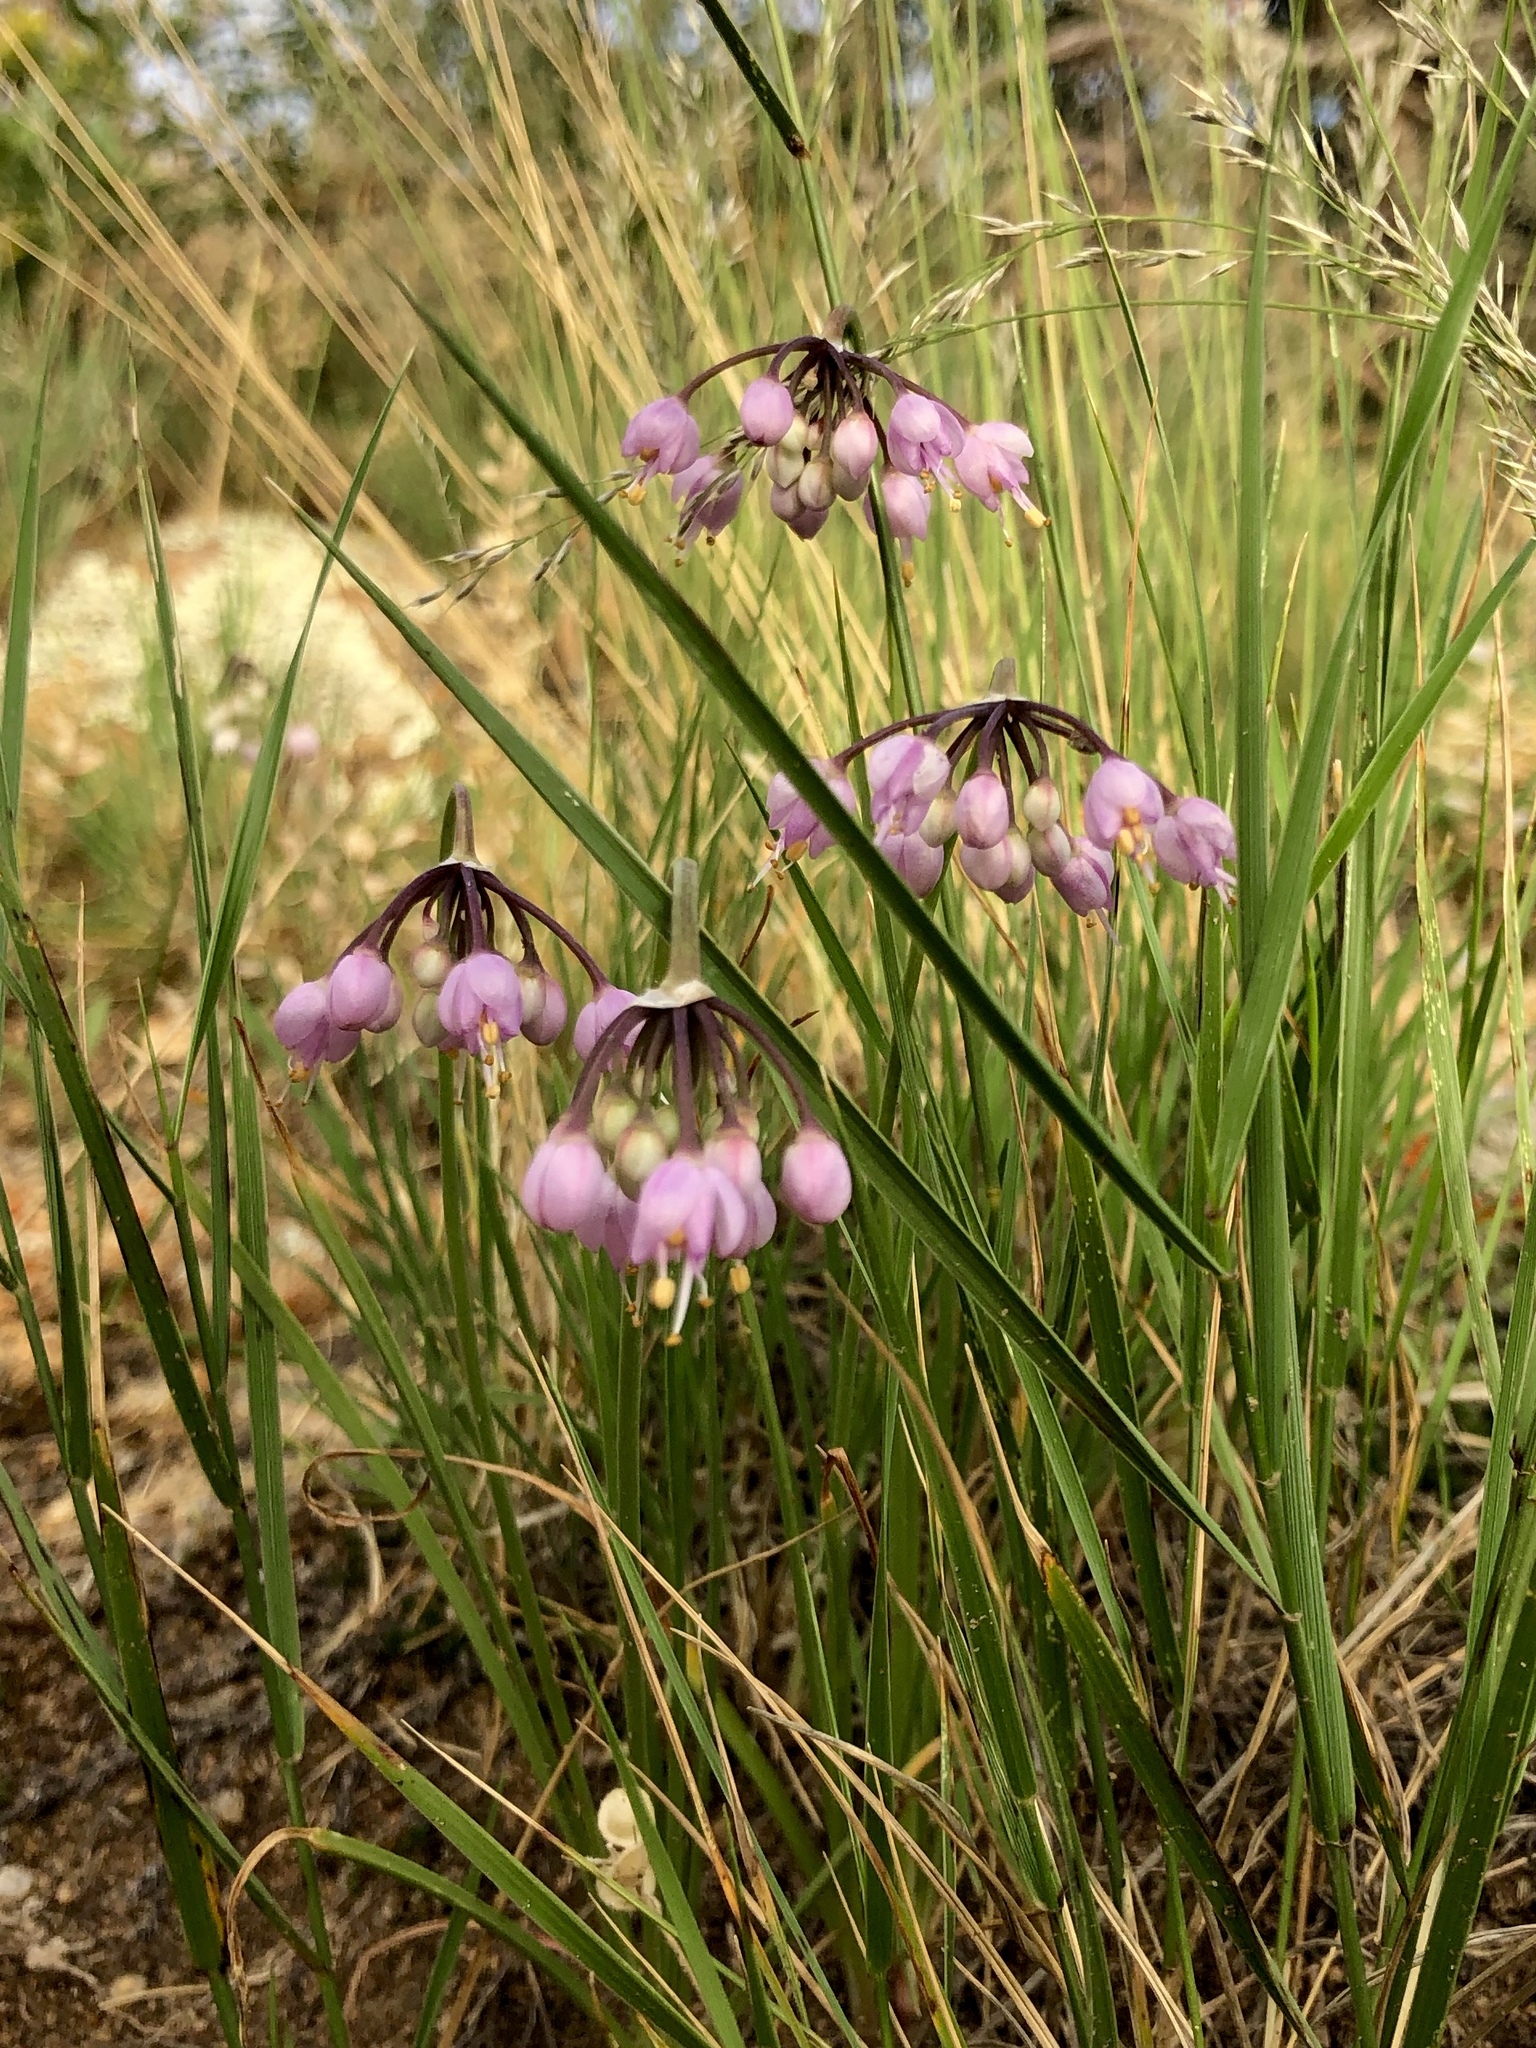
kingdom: Plantae
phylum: Tracheophyta
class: Liliopsida
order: Asparagales
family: Amaryllidaceae
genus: Allium
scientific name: Allium cernuum
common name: Nodding onion
